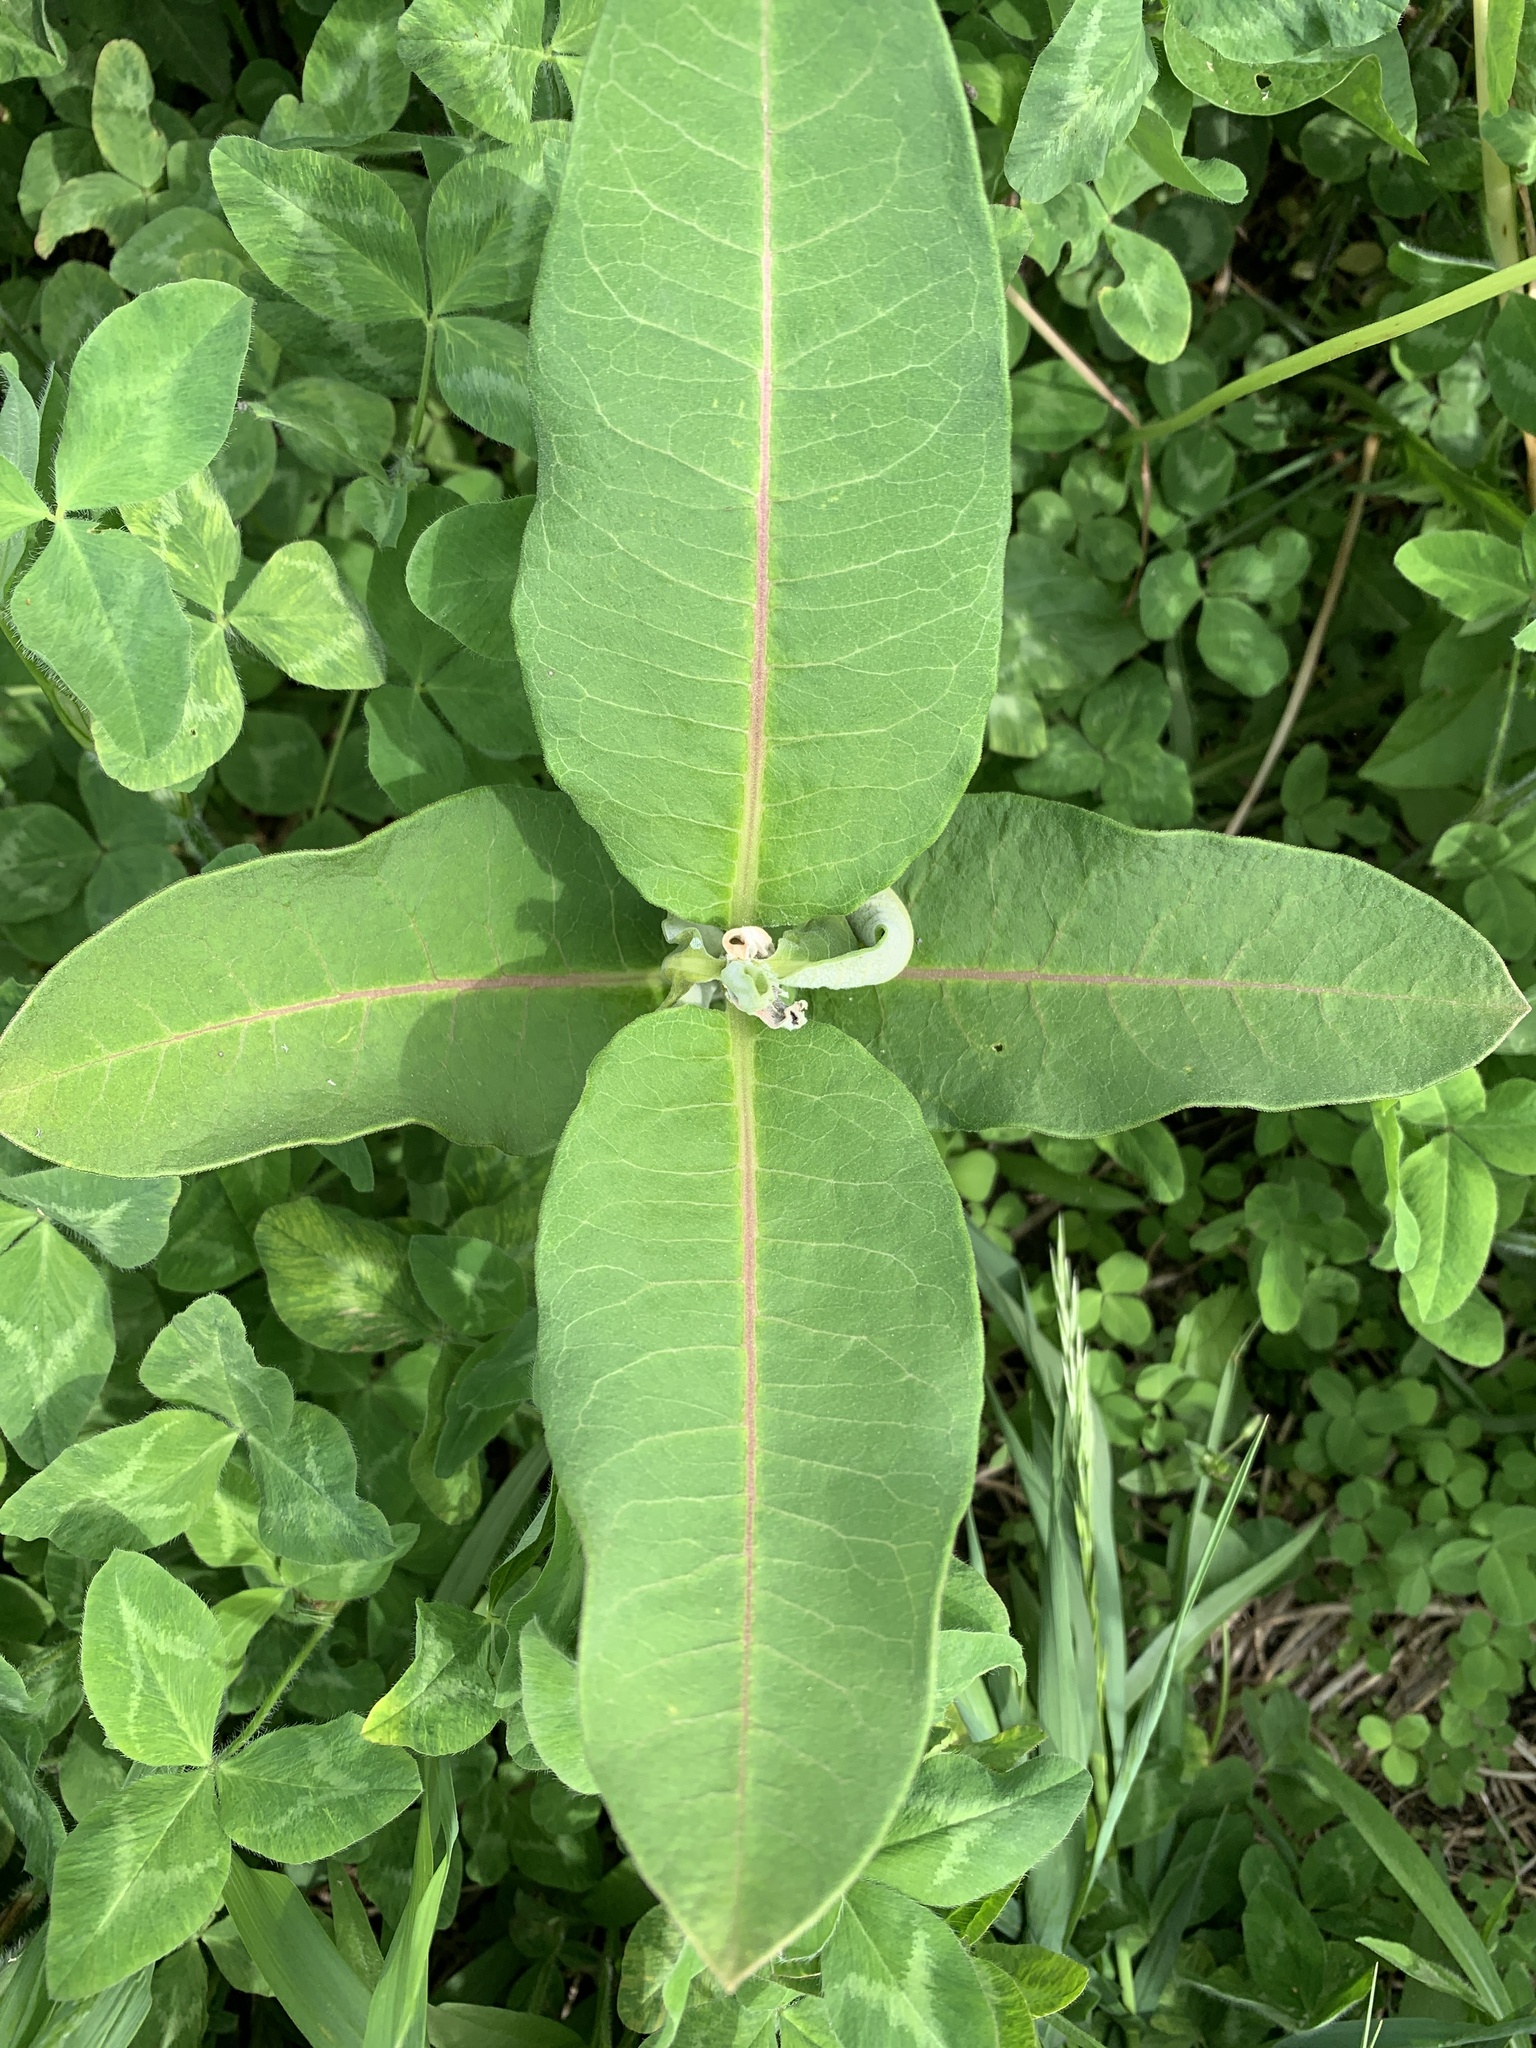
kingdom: Plantae
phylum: Tracheophyta
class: Magnoliopsida
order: Gentianales
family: Apocynaceae
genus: Asclepias
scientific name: Asclepias syriaca
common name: Common milkweed
